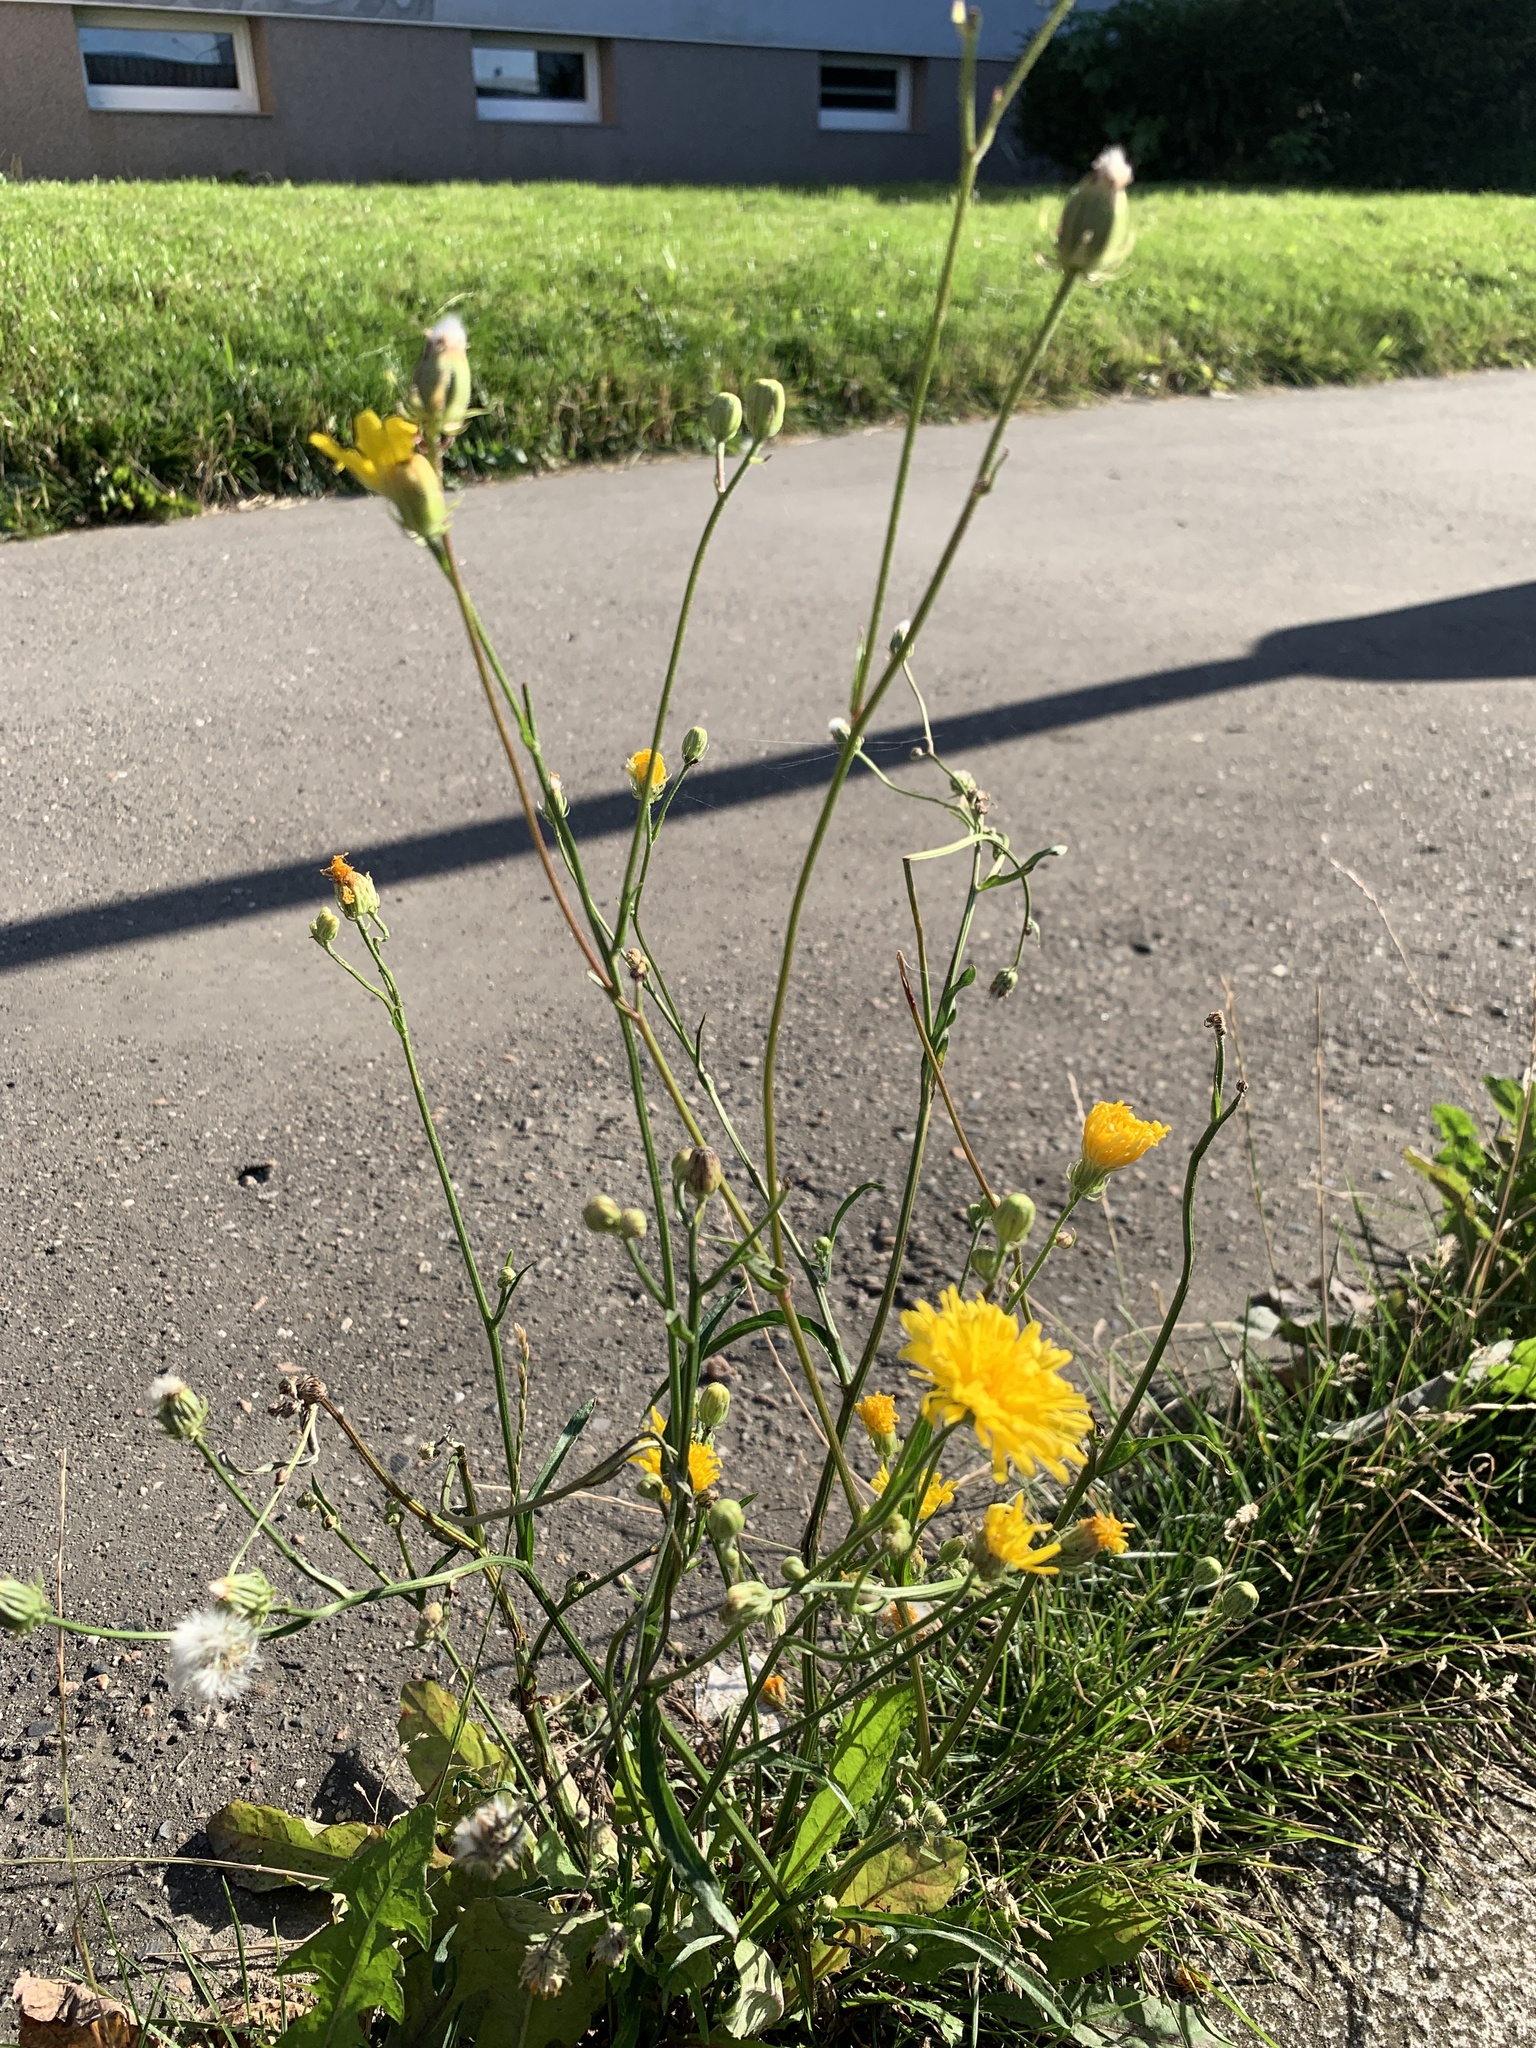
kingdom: Plantae
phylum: Tracheophyta
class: Magnoliopsida
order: Asterales
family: Asteraceae
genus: Crepis
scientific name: Crepis biennis
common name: Rough hawk's-beard
